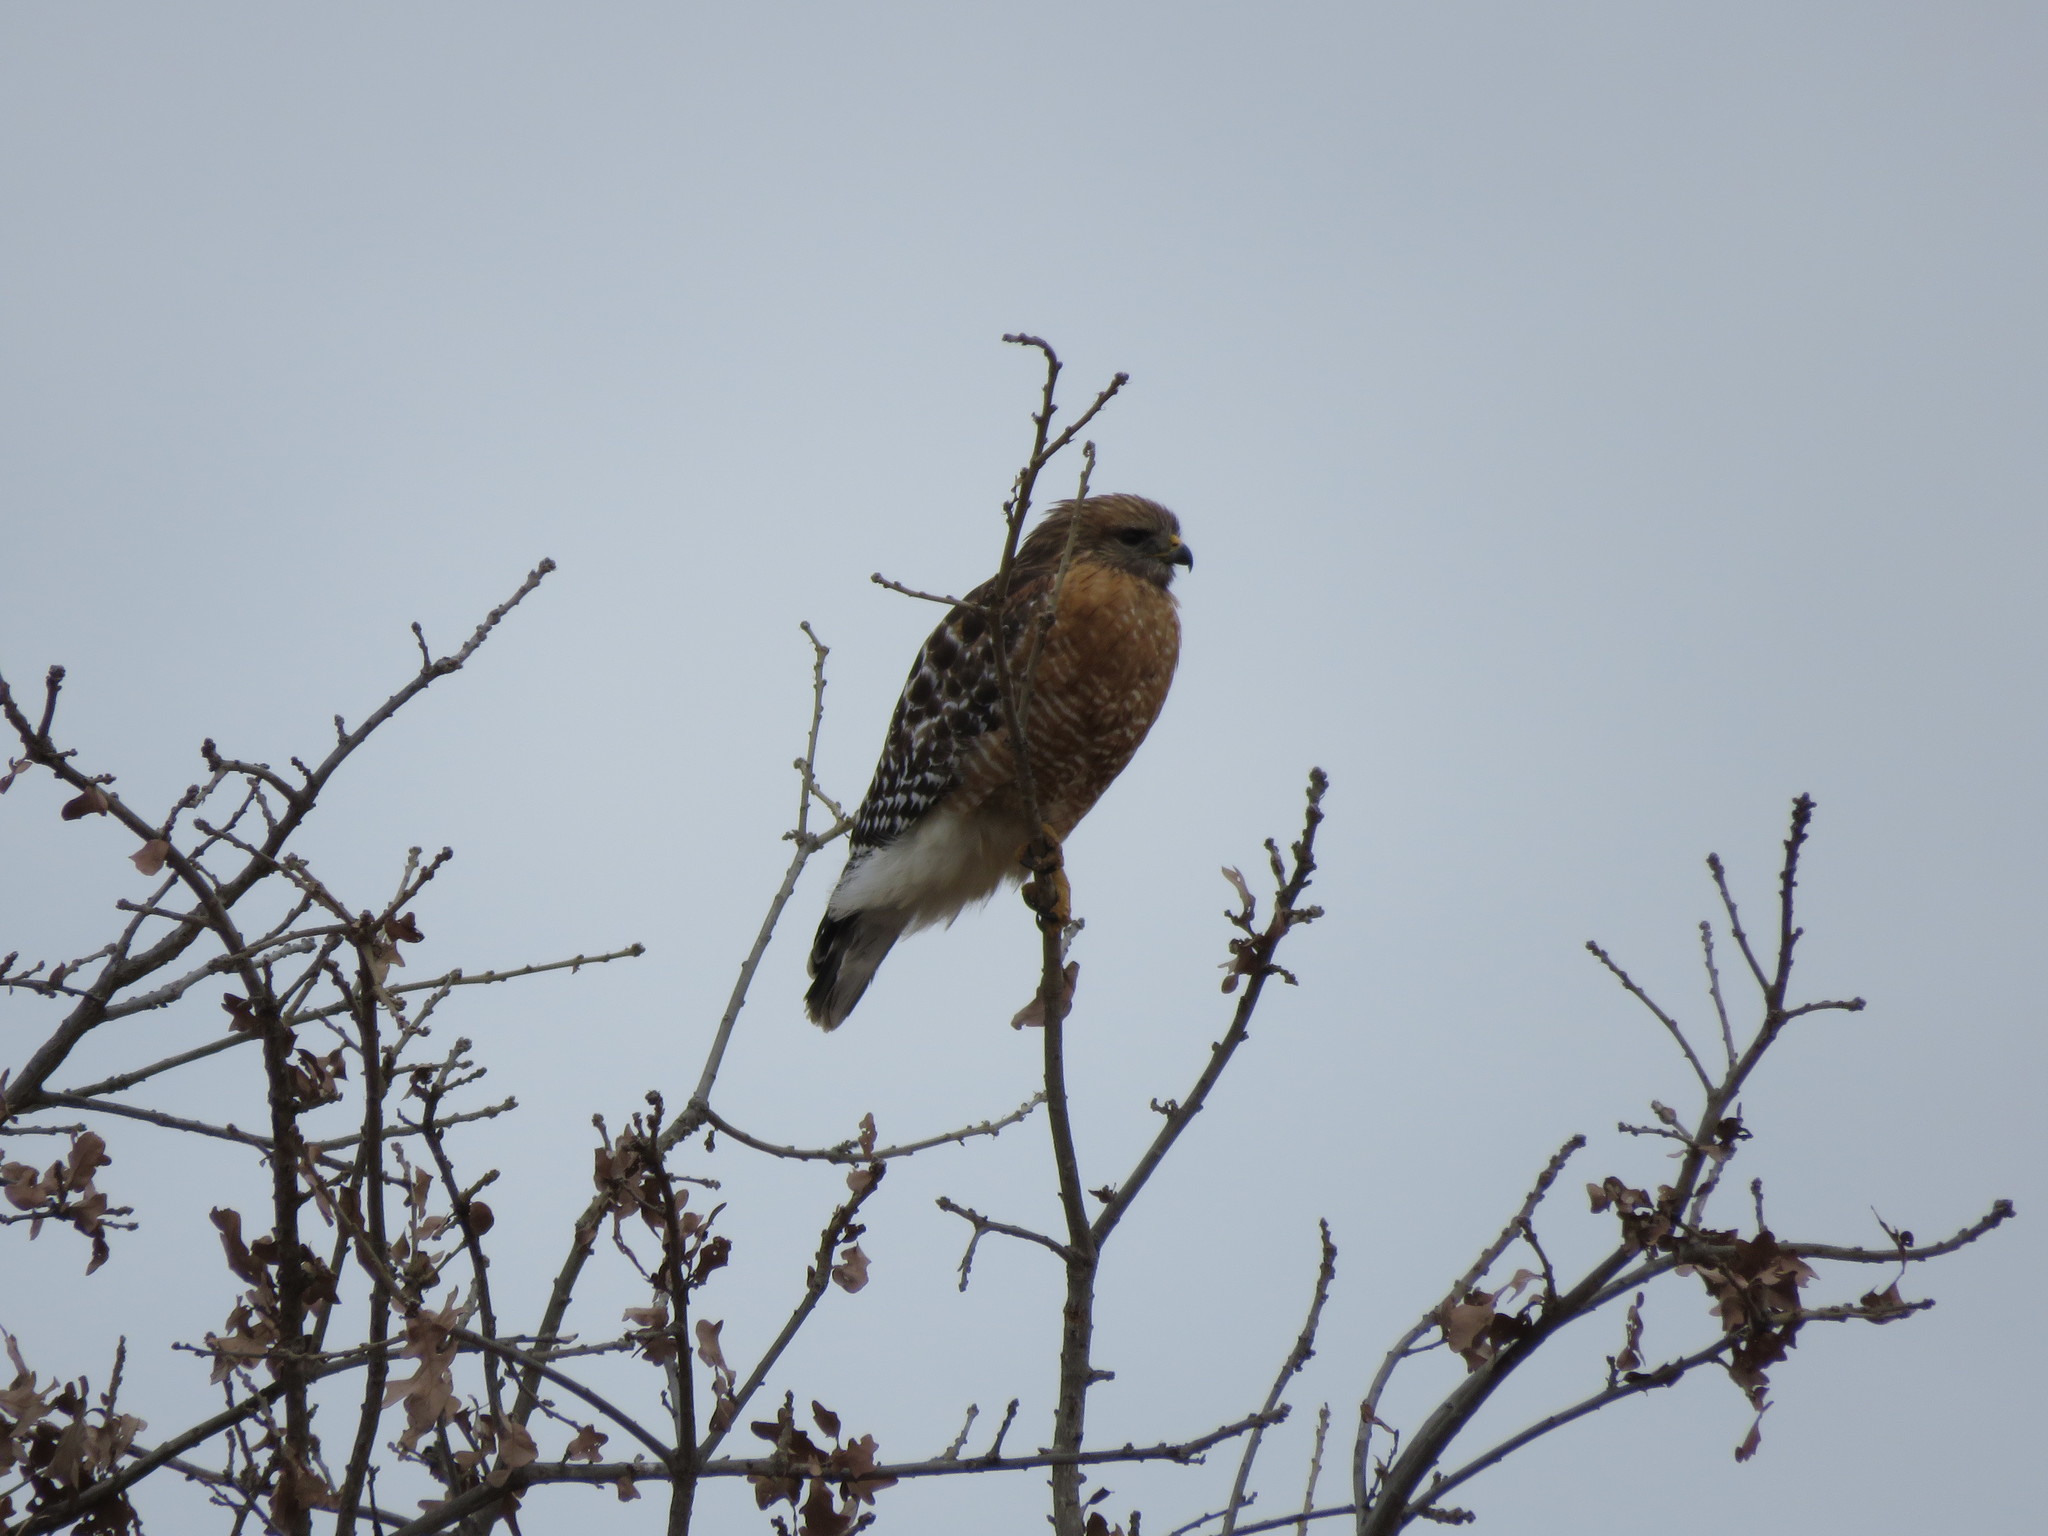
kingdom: Animalia
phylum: Chordata
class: Aves
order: Accipitriformes
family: Accipitridae
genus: Buteo
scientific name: Buteo lineatus
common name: Red-shouldered hawk
